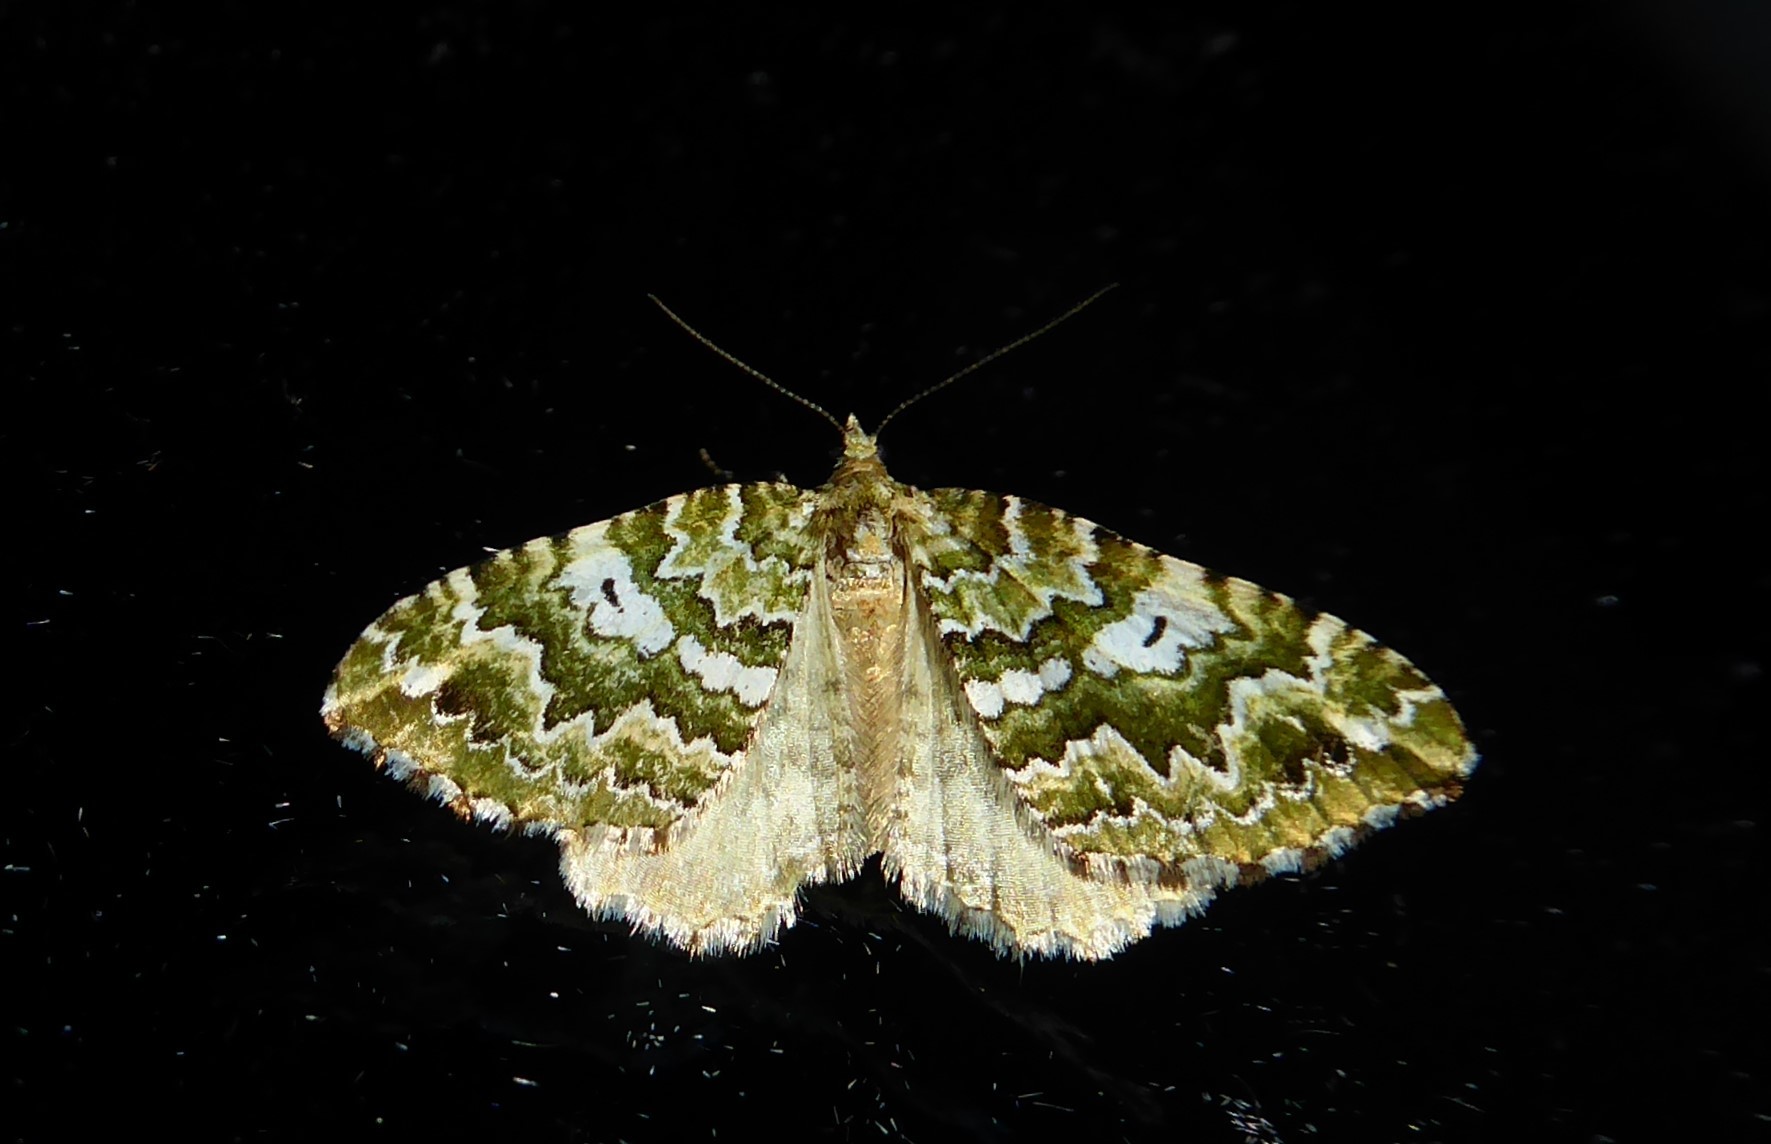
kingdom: Animalia
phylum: Arthropoda
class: Insecta
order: Lepidoptera
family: Geometridae
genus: Asaphodes
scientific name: Asaphodes beata
